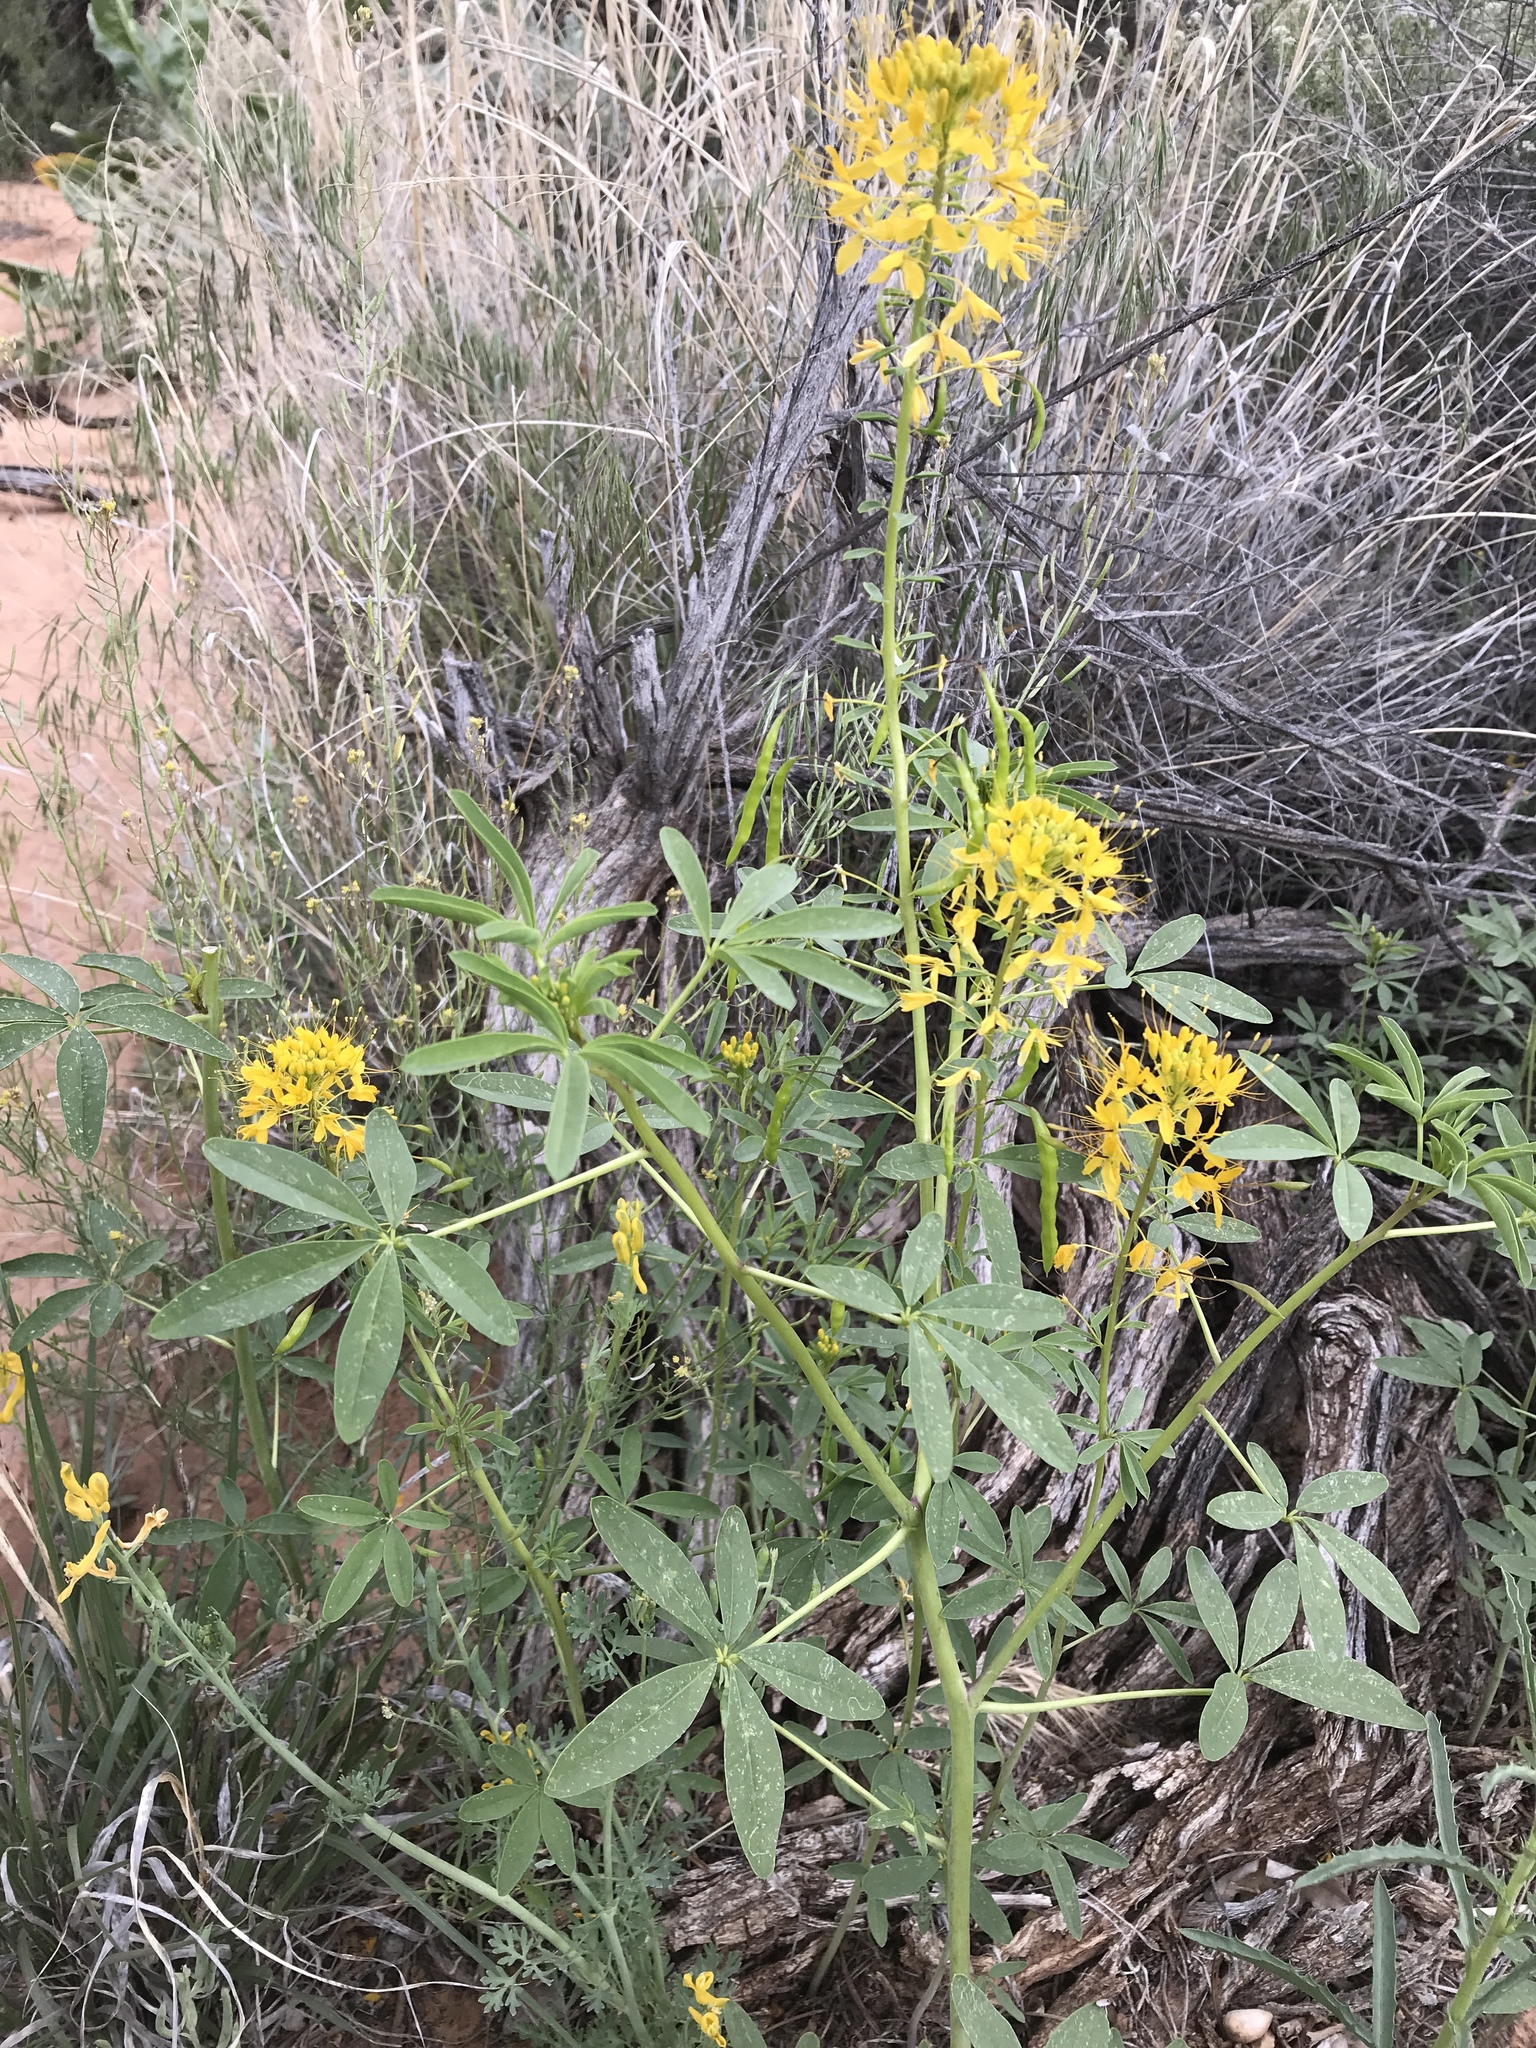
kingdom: Plantae
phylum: Tracheophyta
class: Magnoliopsida
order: Brassicales
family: Cleomaceae
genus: Cleomella
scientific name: Cleomella lutea
